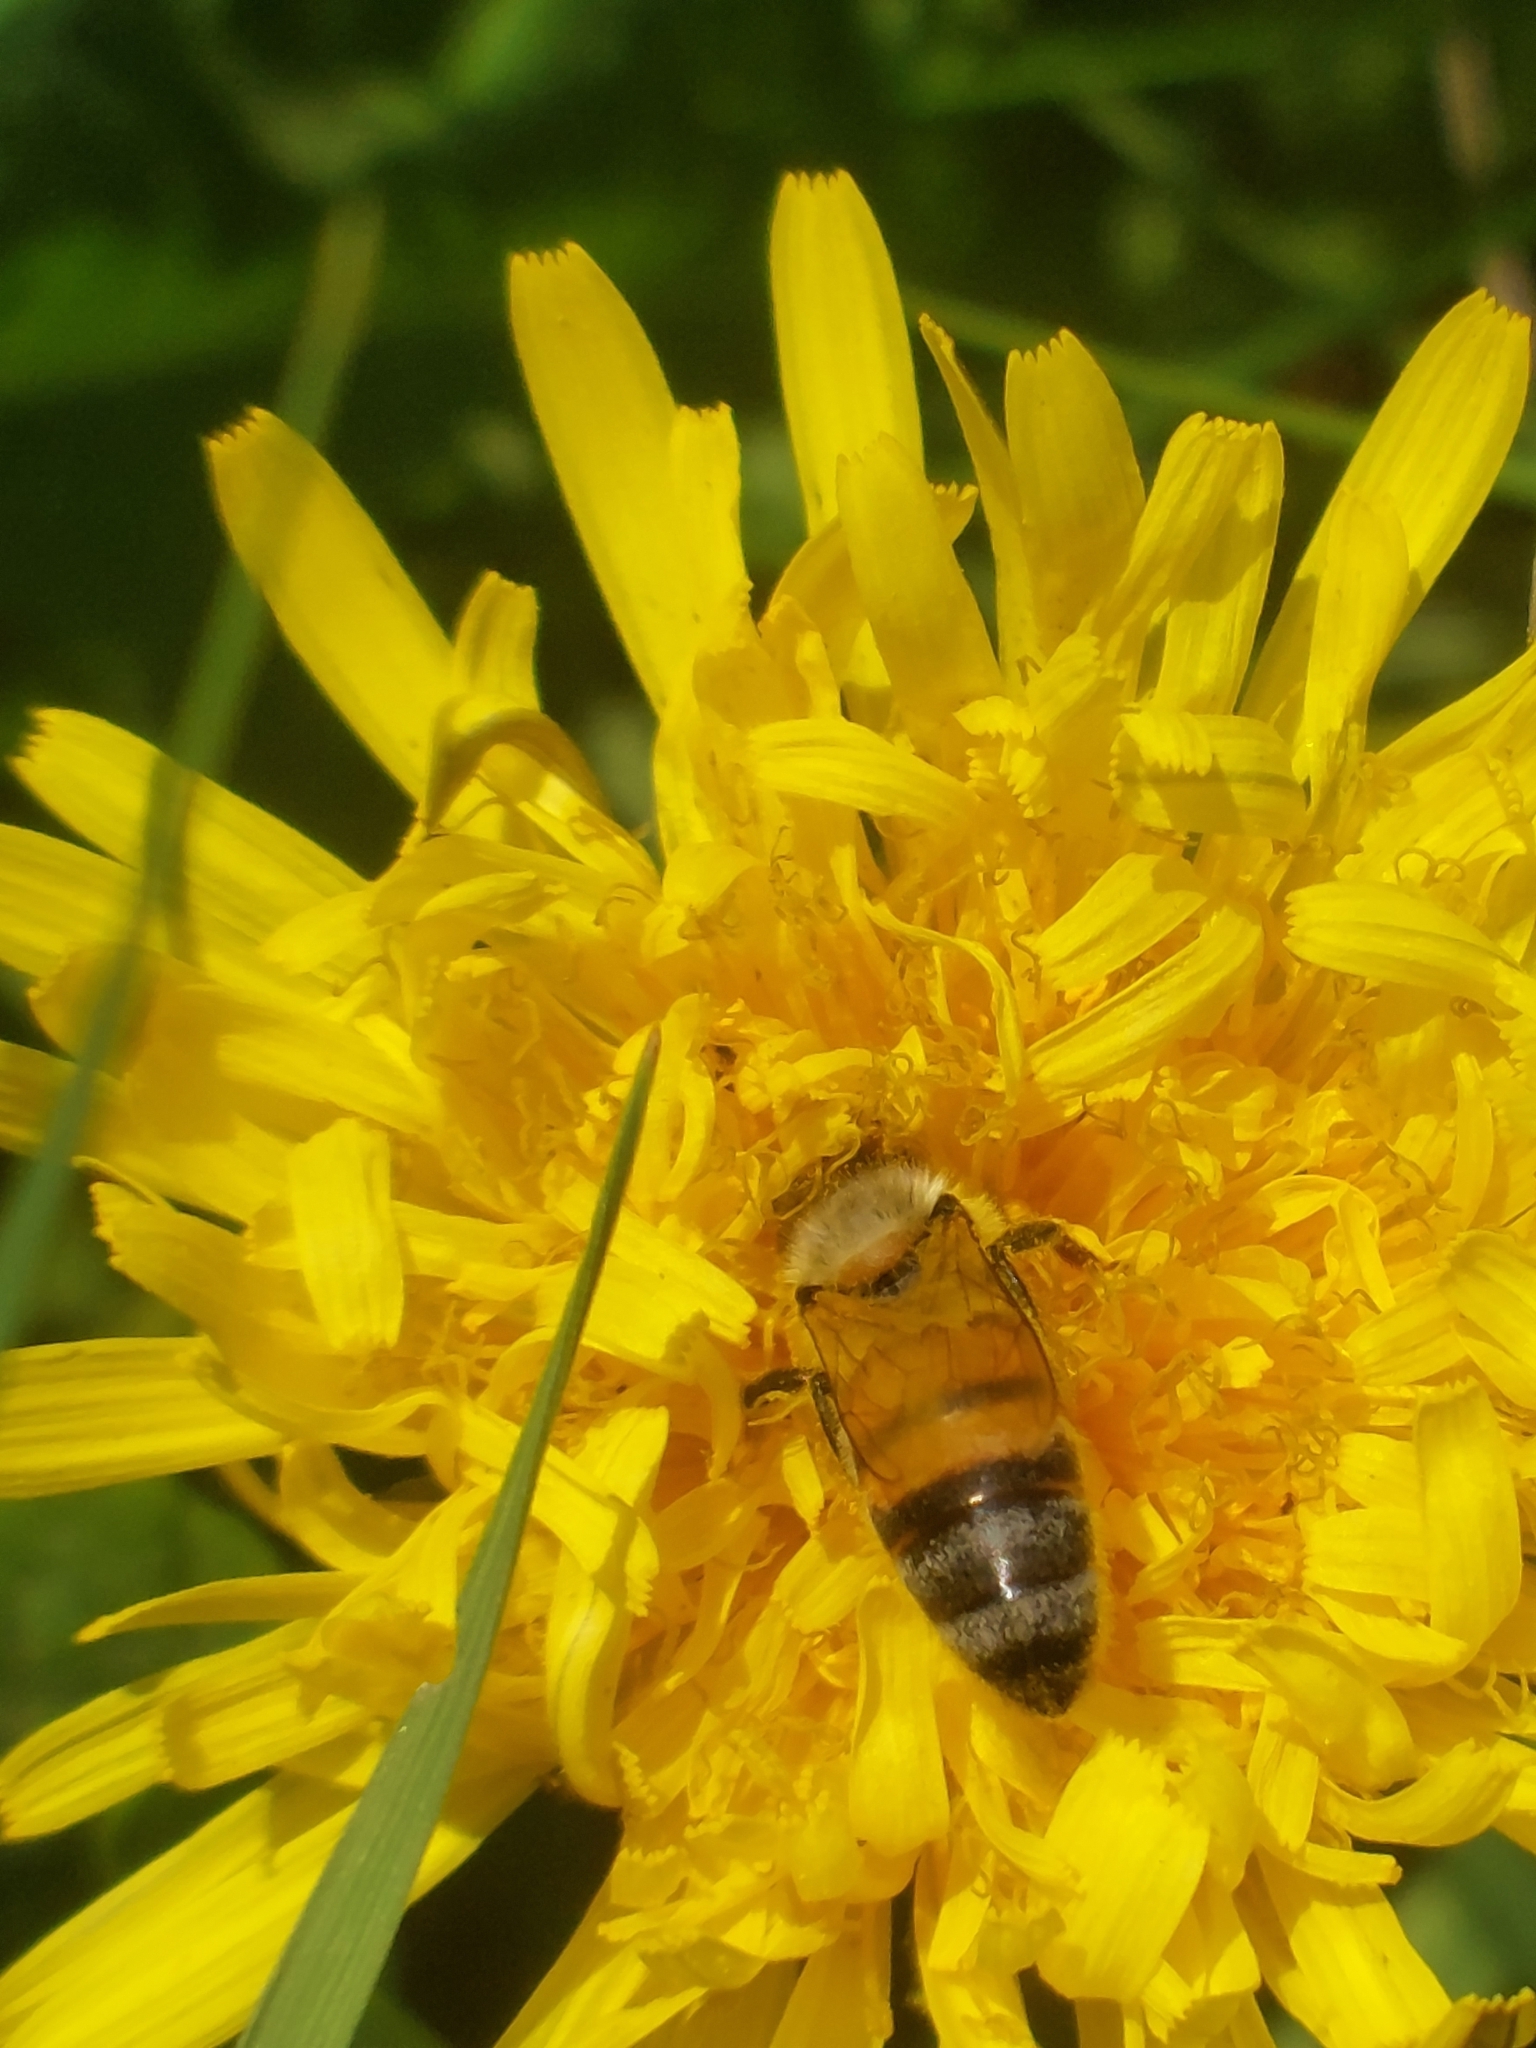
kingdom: Animalia
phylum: Arthropoda
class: Insecta
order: Hymenoptera
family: Apidae
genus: Apis
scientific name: Apis mellifera
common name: Honey bee
